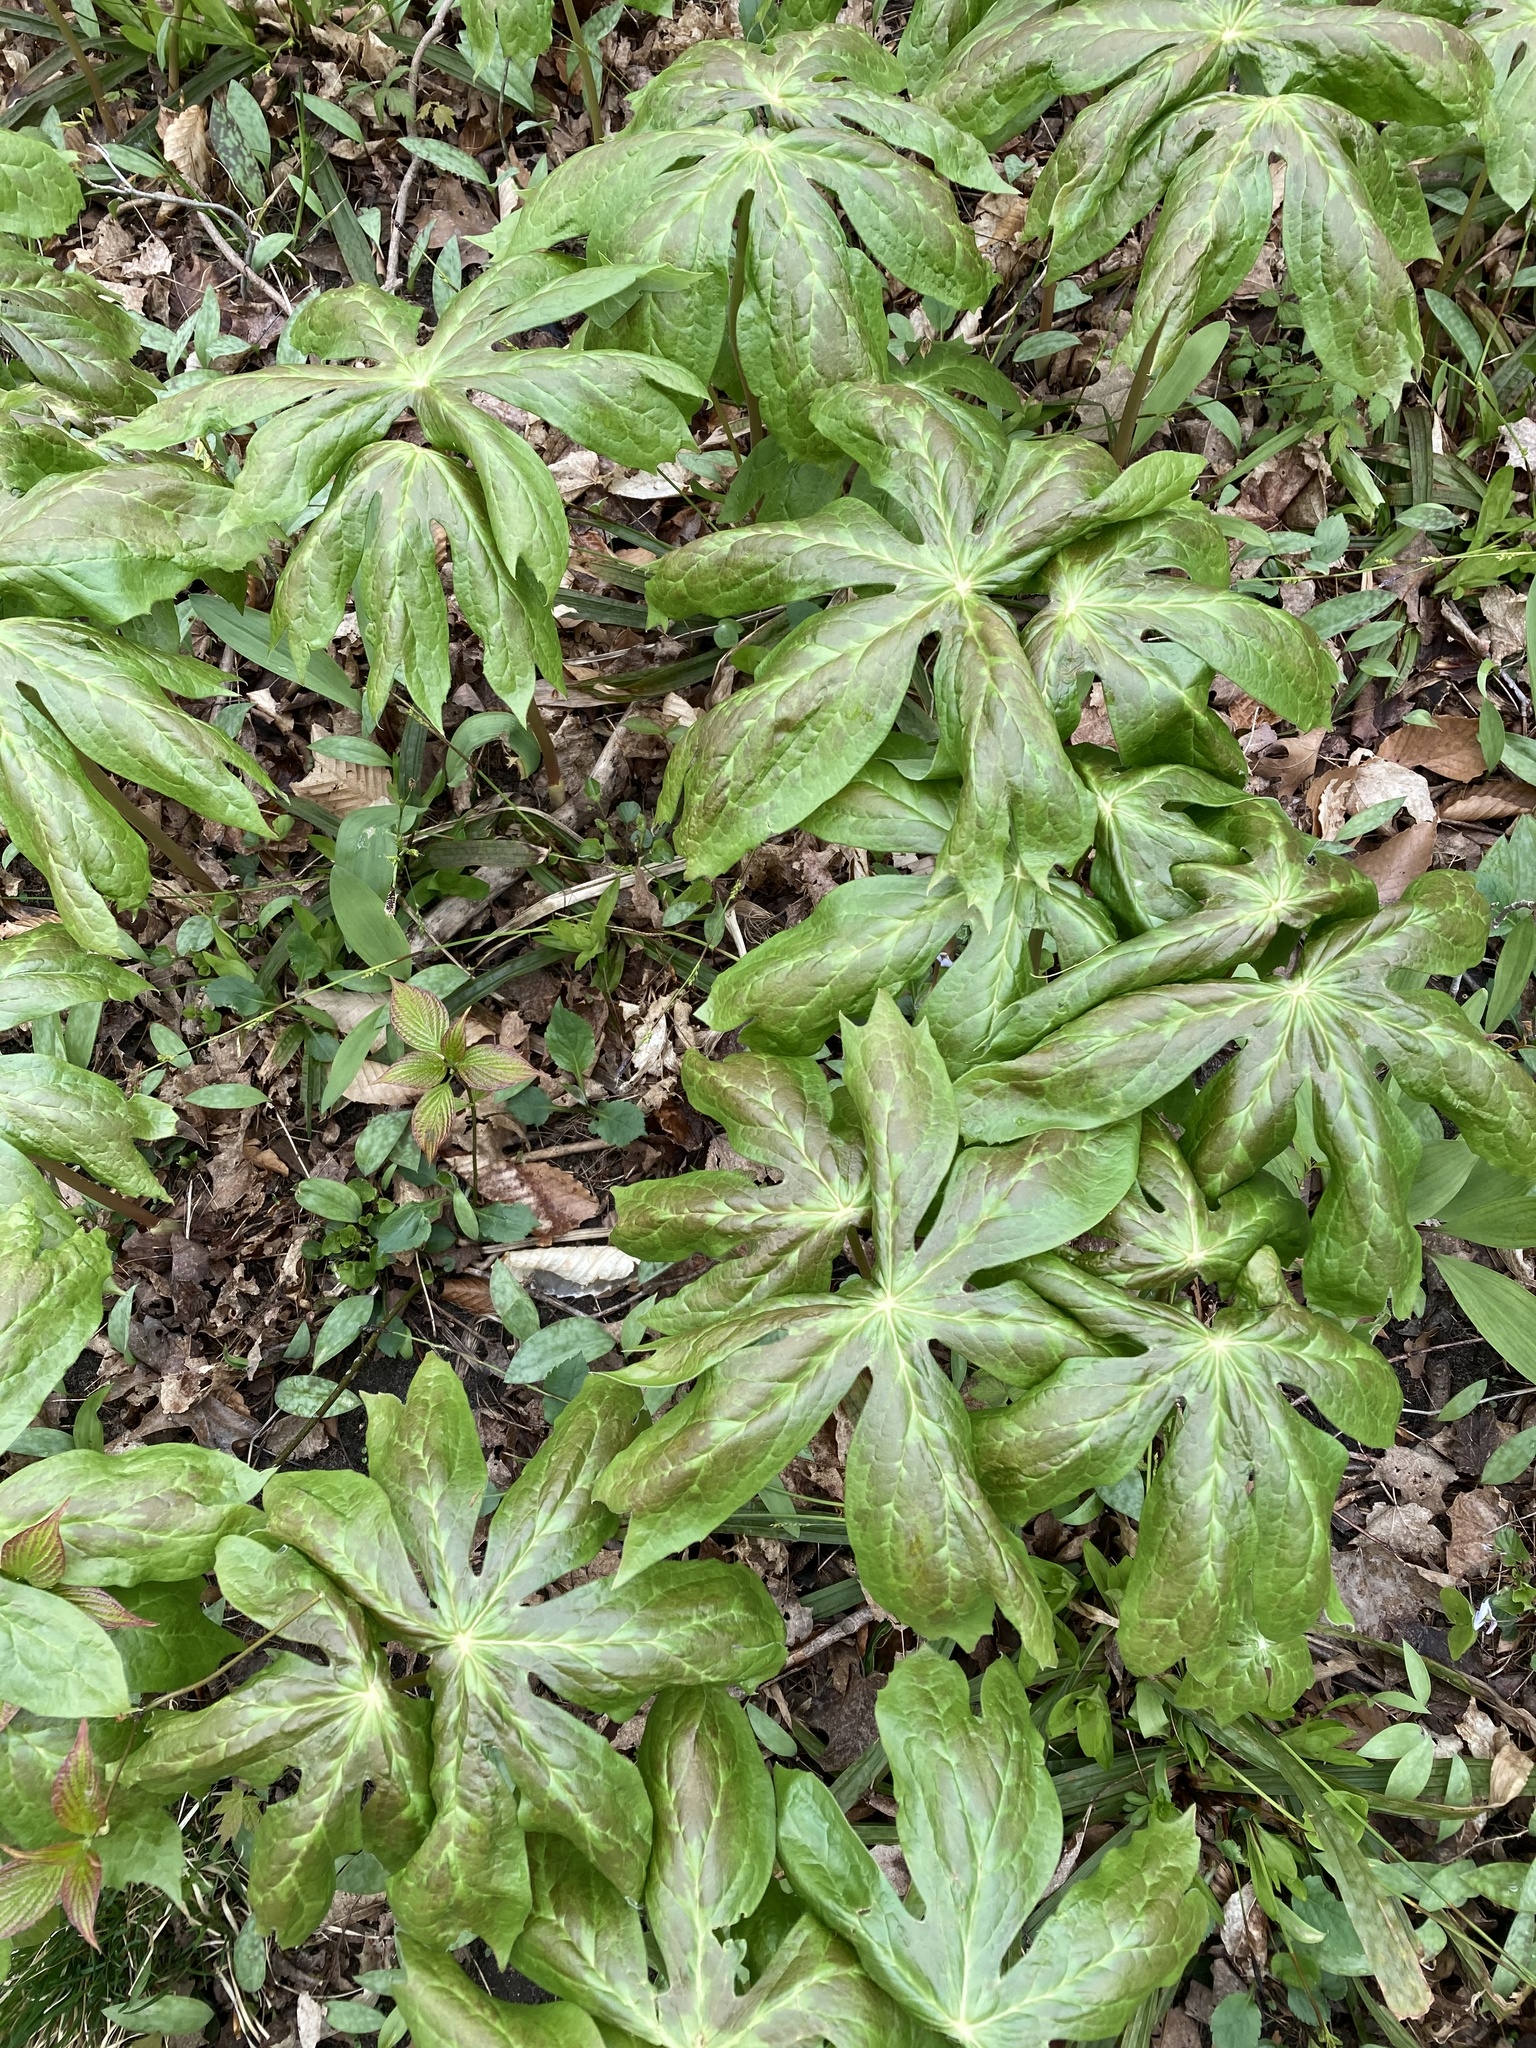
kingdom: Plantae
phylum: Tracheophyta
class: Magnoliopsida
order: Ranunculales
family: Berberidaceae
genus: Podophyllum
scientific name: Podophyllum peltatum
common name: Wild mandrake
